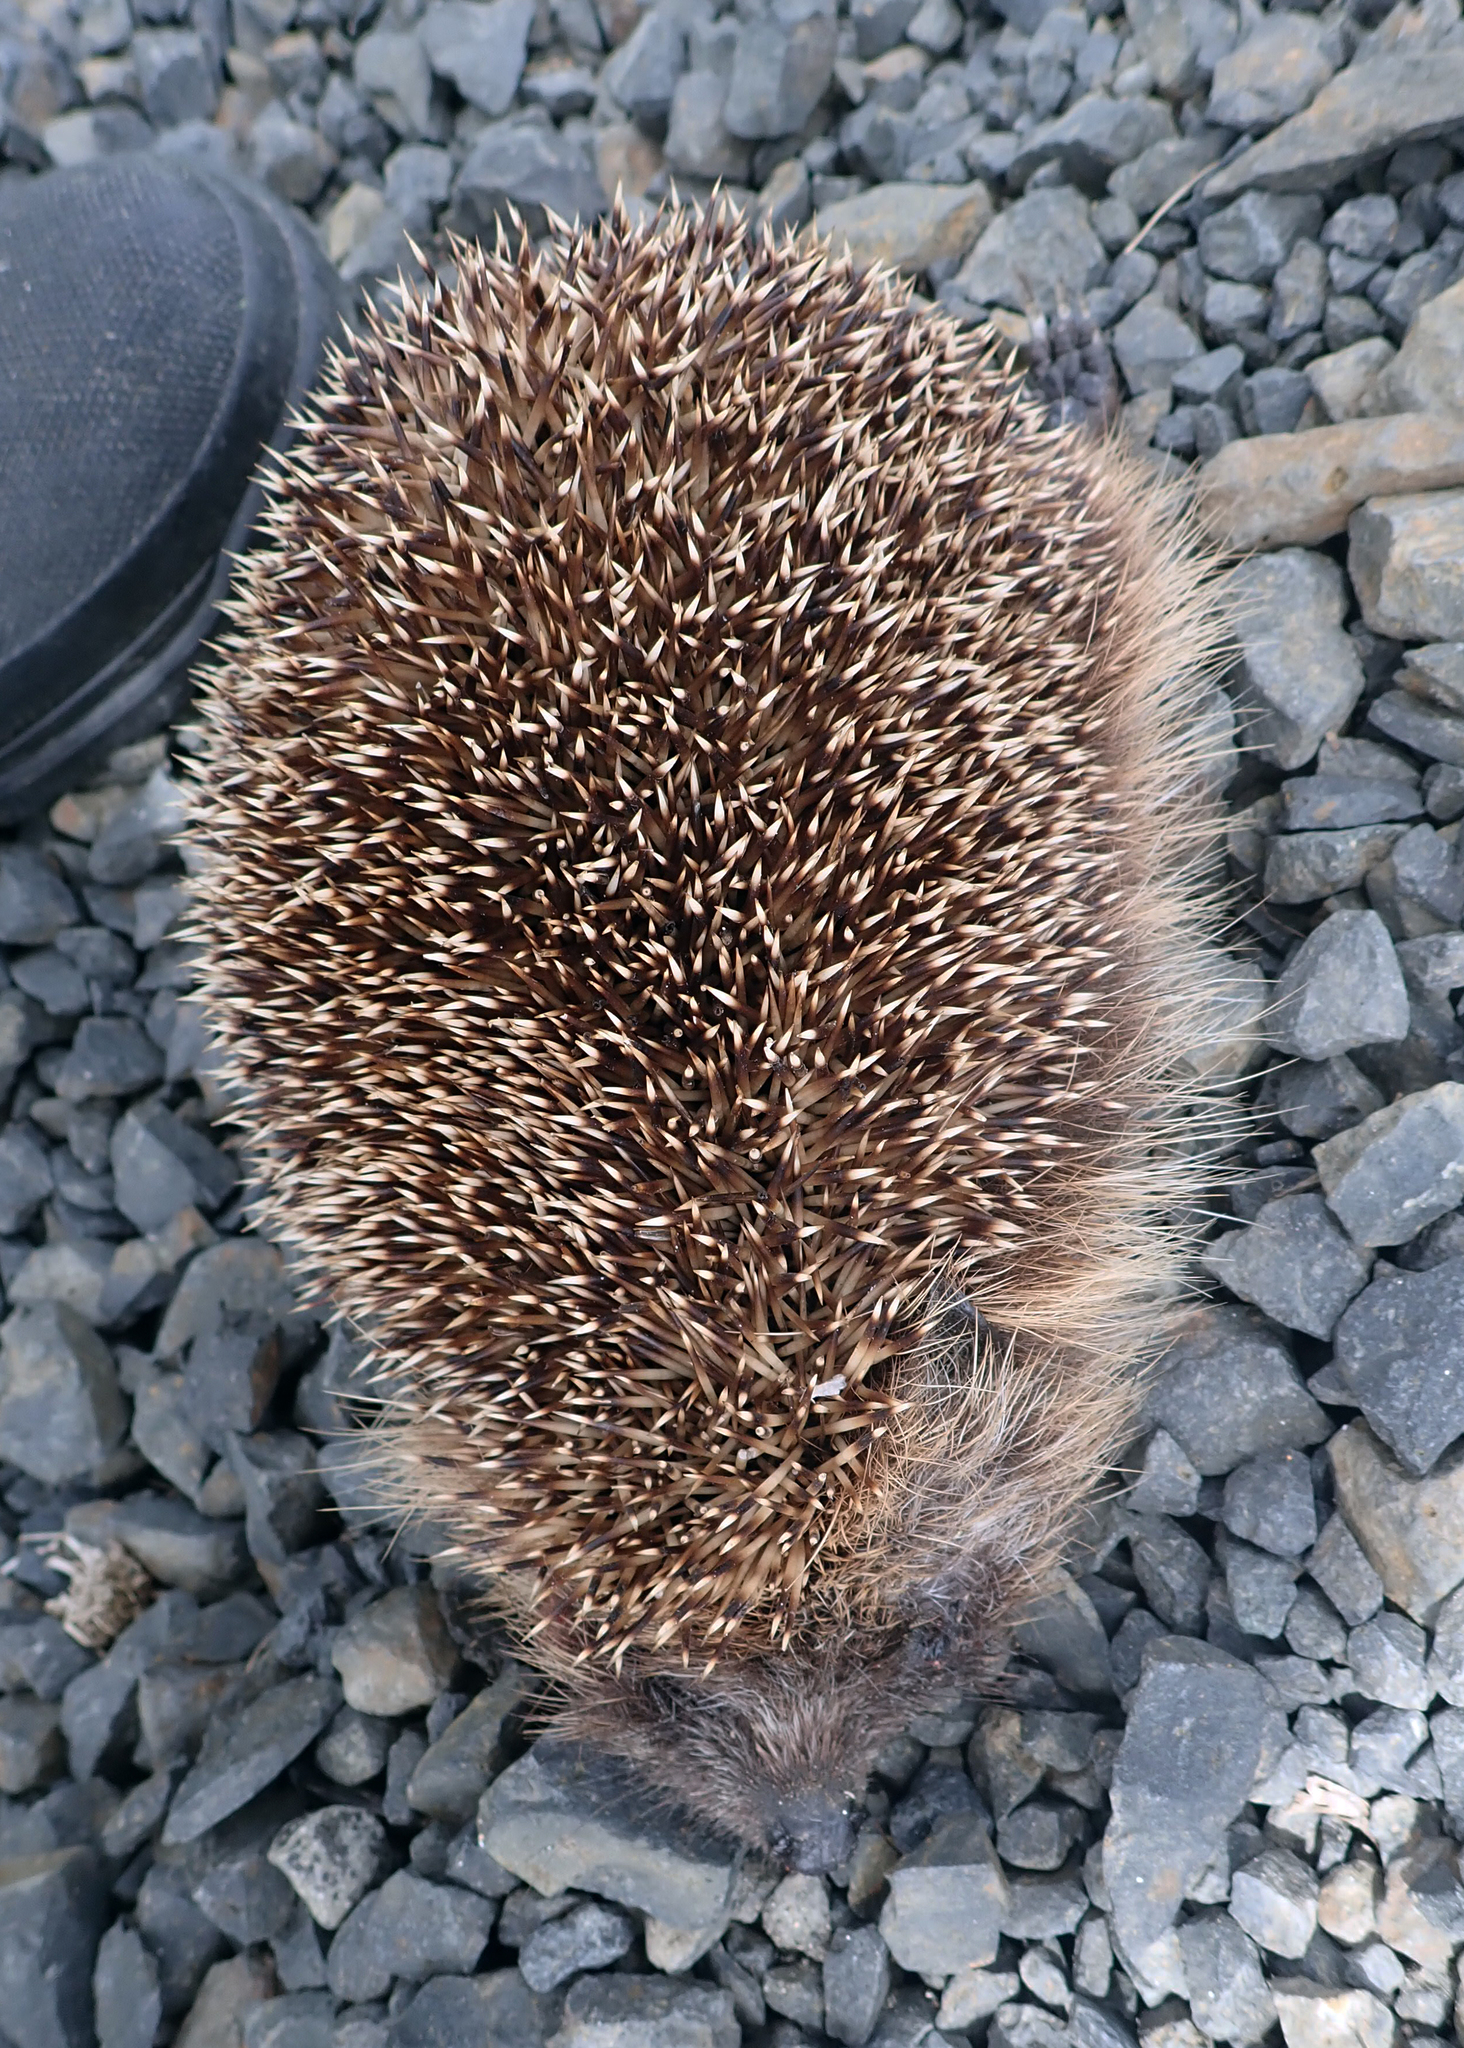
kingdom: Animalia
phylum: Chordata
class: Mammalia
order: Erinaceomorpha
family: Erinaceidae
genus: Erinaceus
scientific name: Erinaceus europaeus
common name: West european hedgehog
